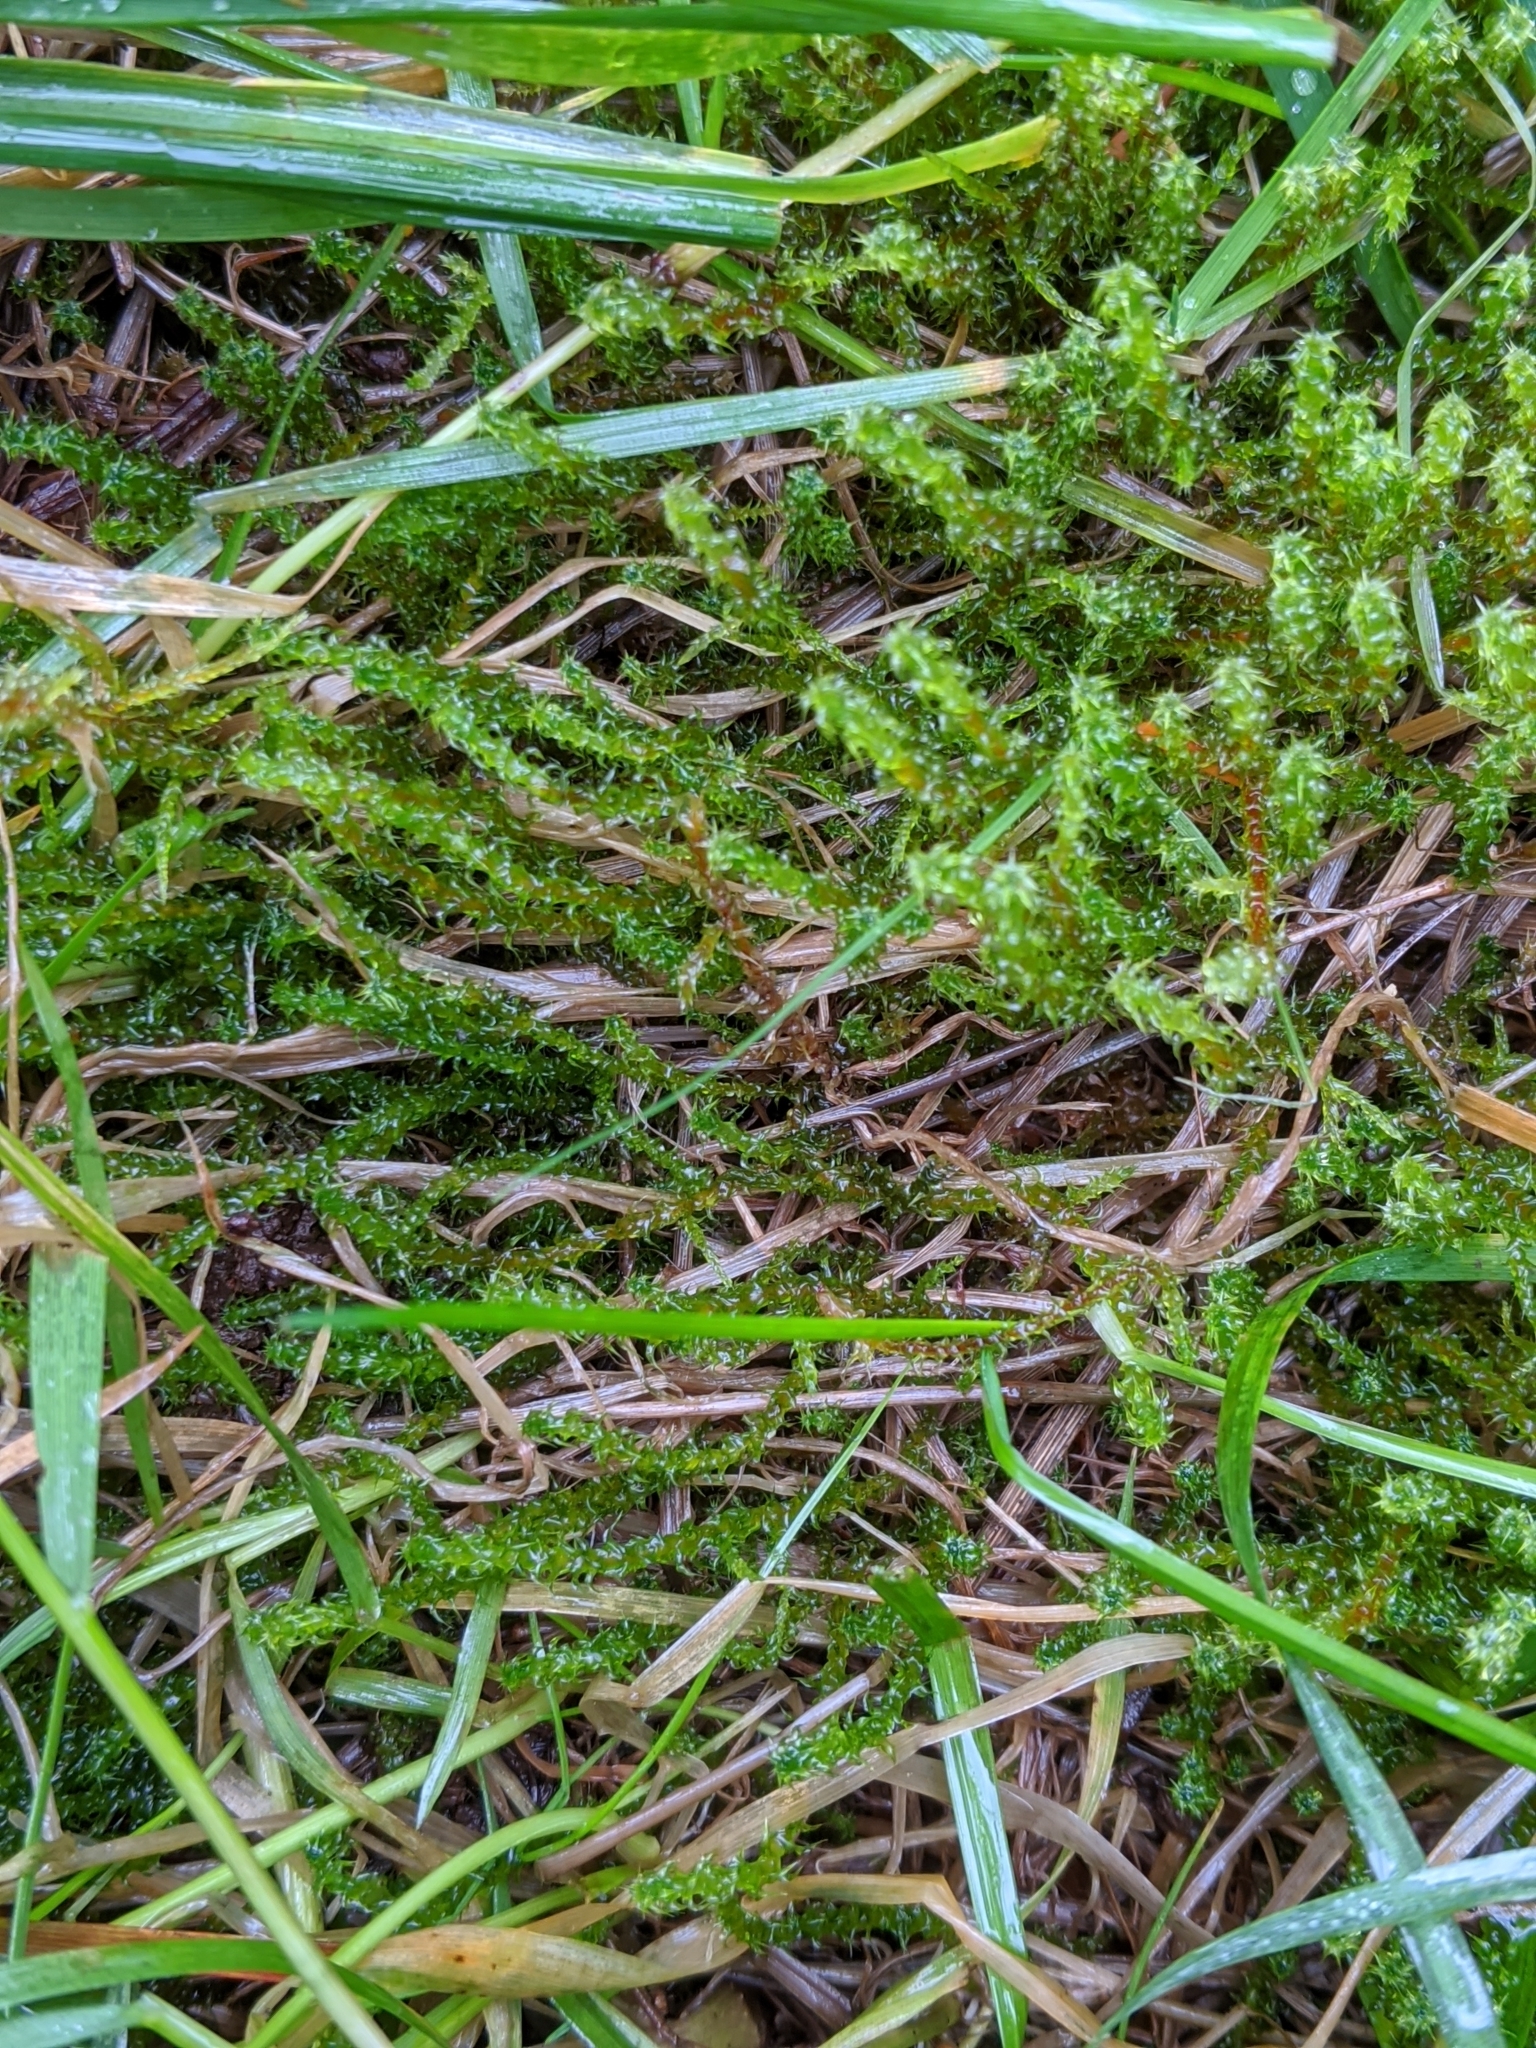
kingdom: Plantae
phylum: Bryophyta
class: Bryopsida
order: Hypnales
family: Hylocomiaceae
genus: Rhytidiadelphus
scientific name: Rhytidiadelphus squarrosus
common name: Springy turf-moss
